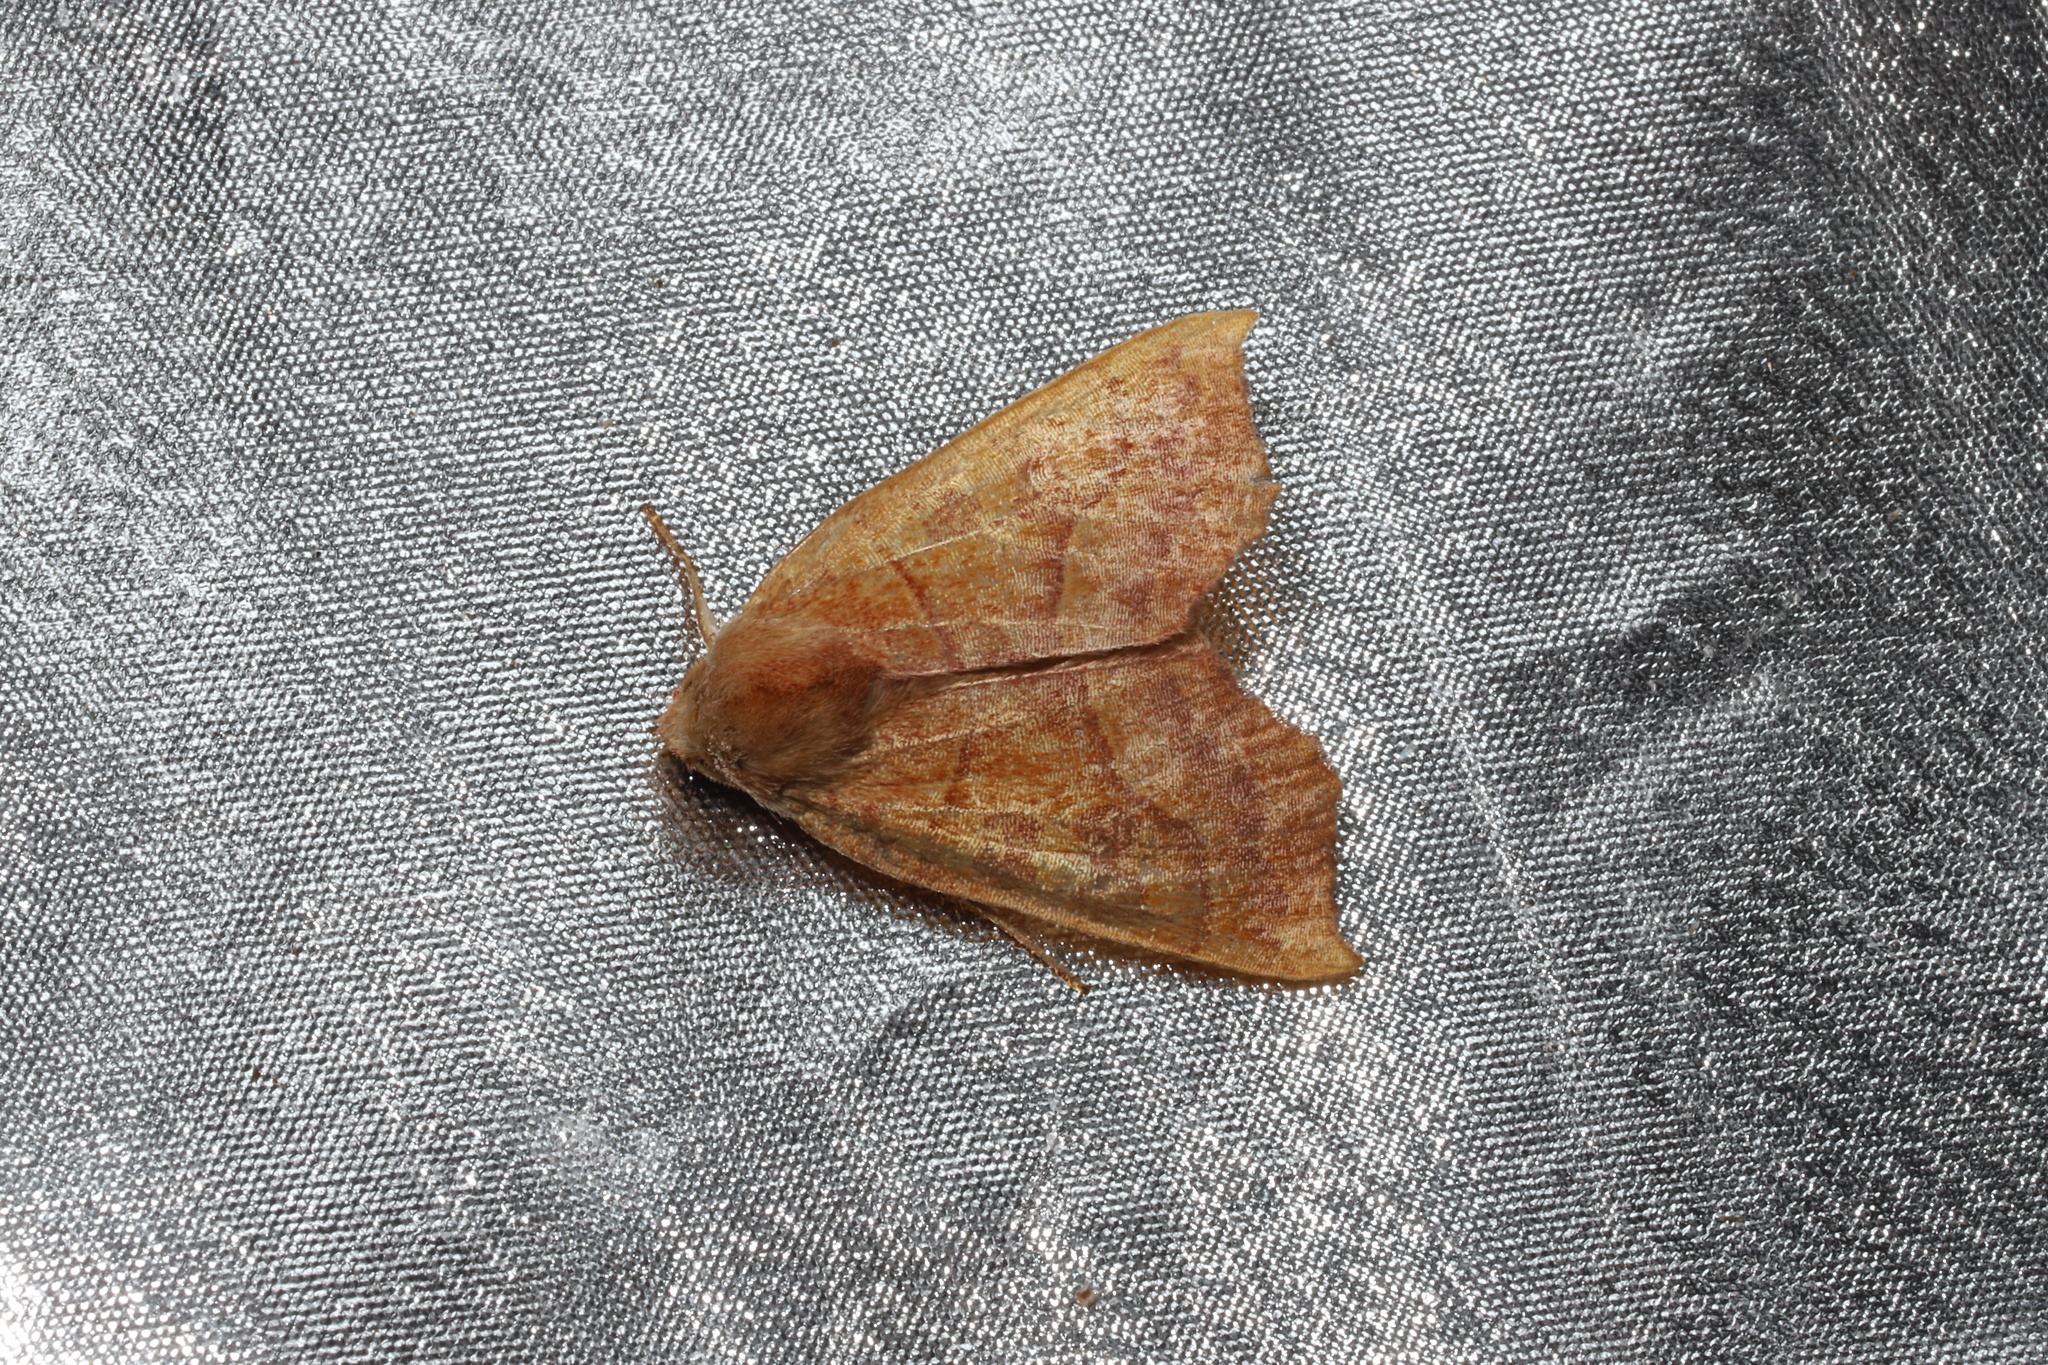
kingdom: Animalia
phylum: Arthropoda
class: Insecta
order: Lepidoptera
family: Noctuidae
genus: Eucirroedia
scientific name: Eucirroedia pampina
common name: Scalloped sallow
